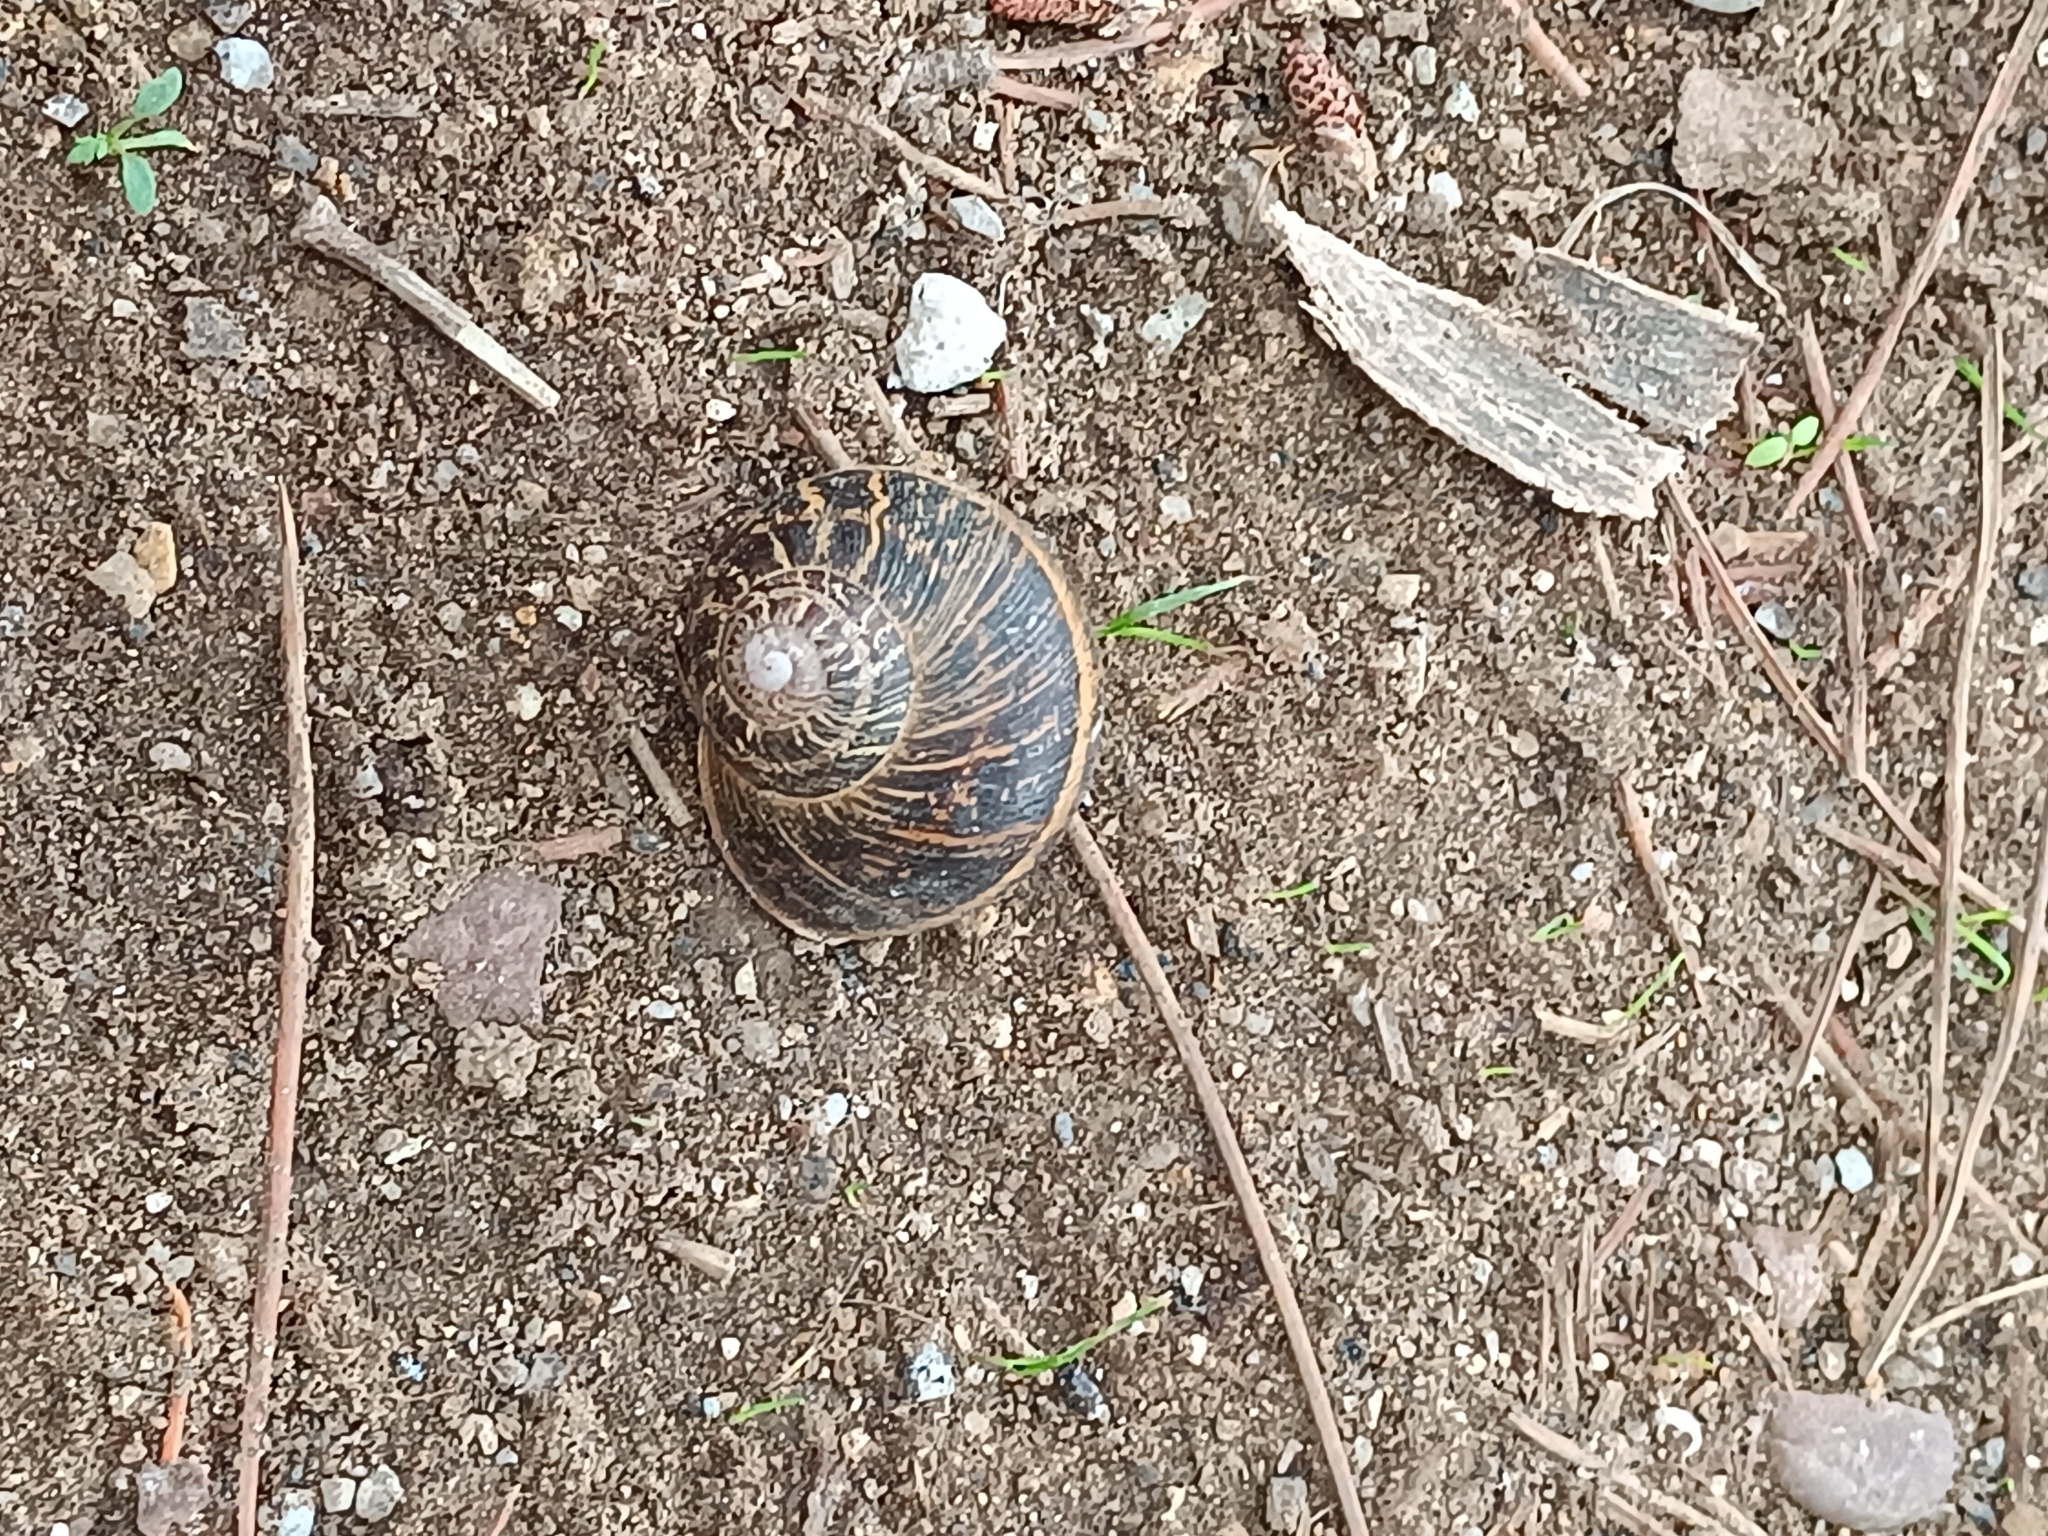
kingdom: Animalia
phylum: Mollusca
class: Gastropoda
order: Stylommatophora
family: Helicidae
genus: Cornu
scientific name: Cornu aspersum
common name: Brown garden snail
